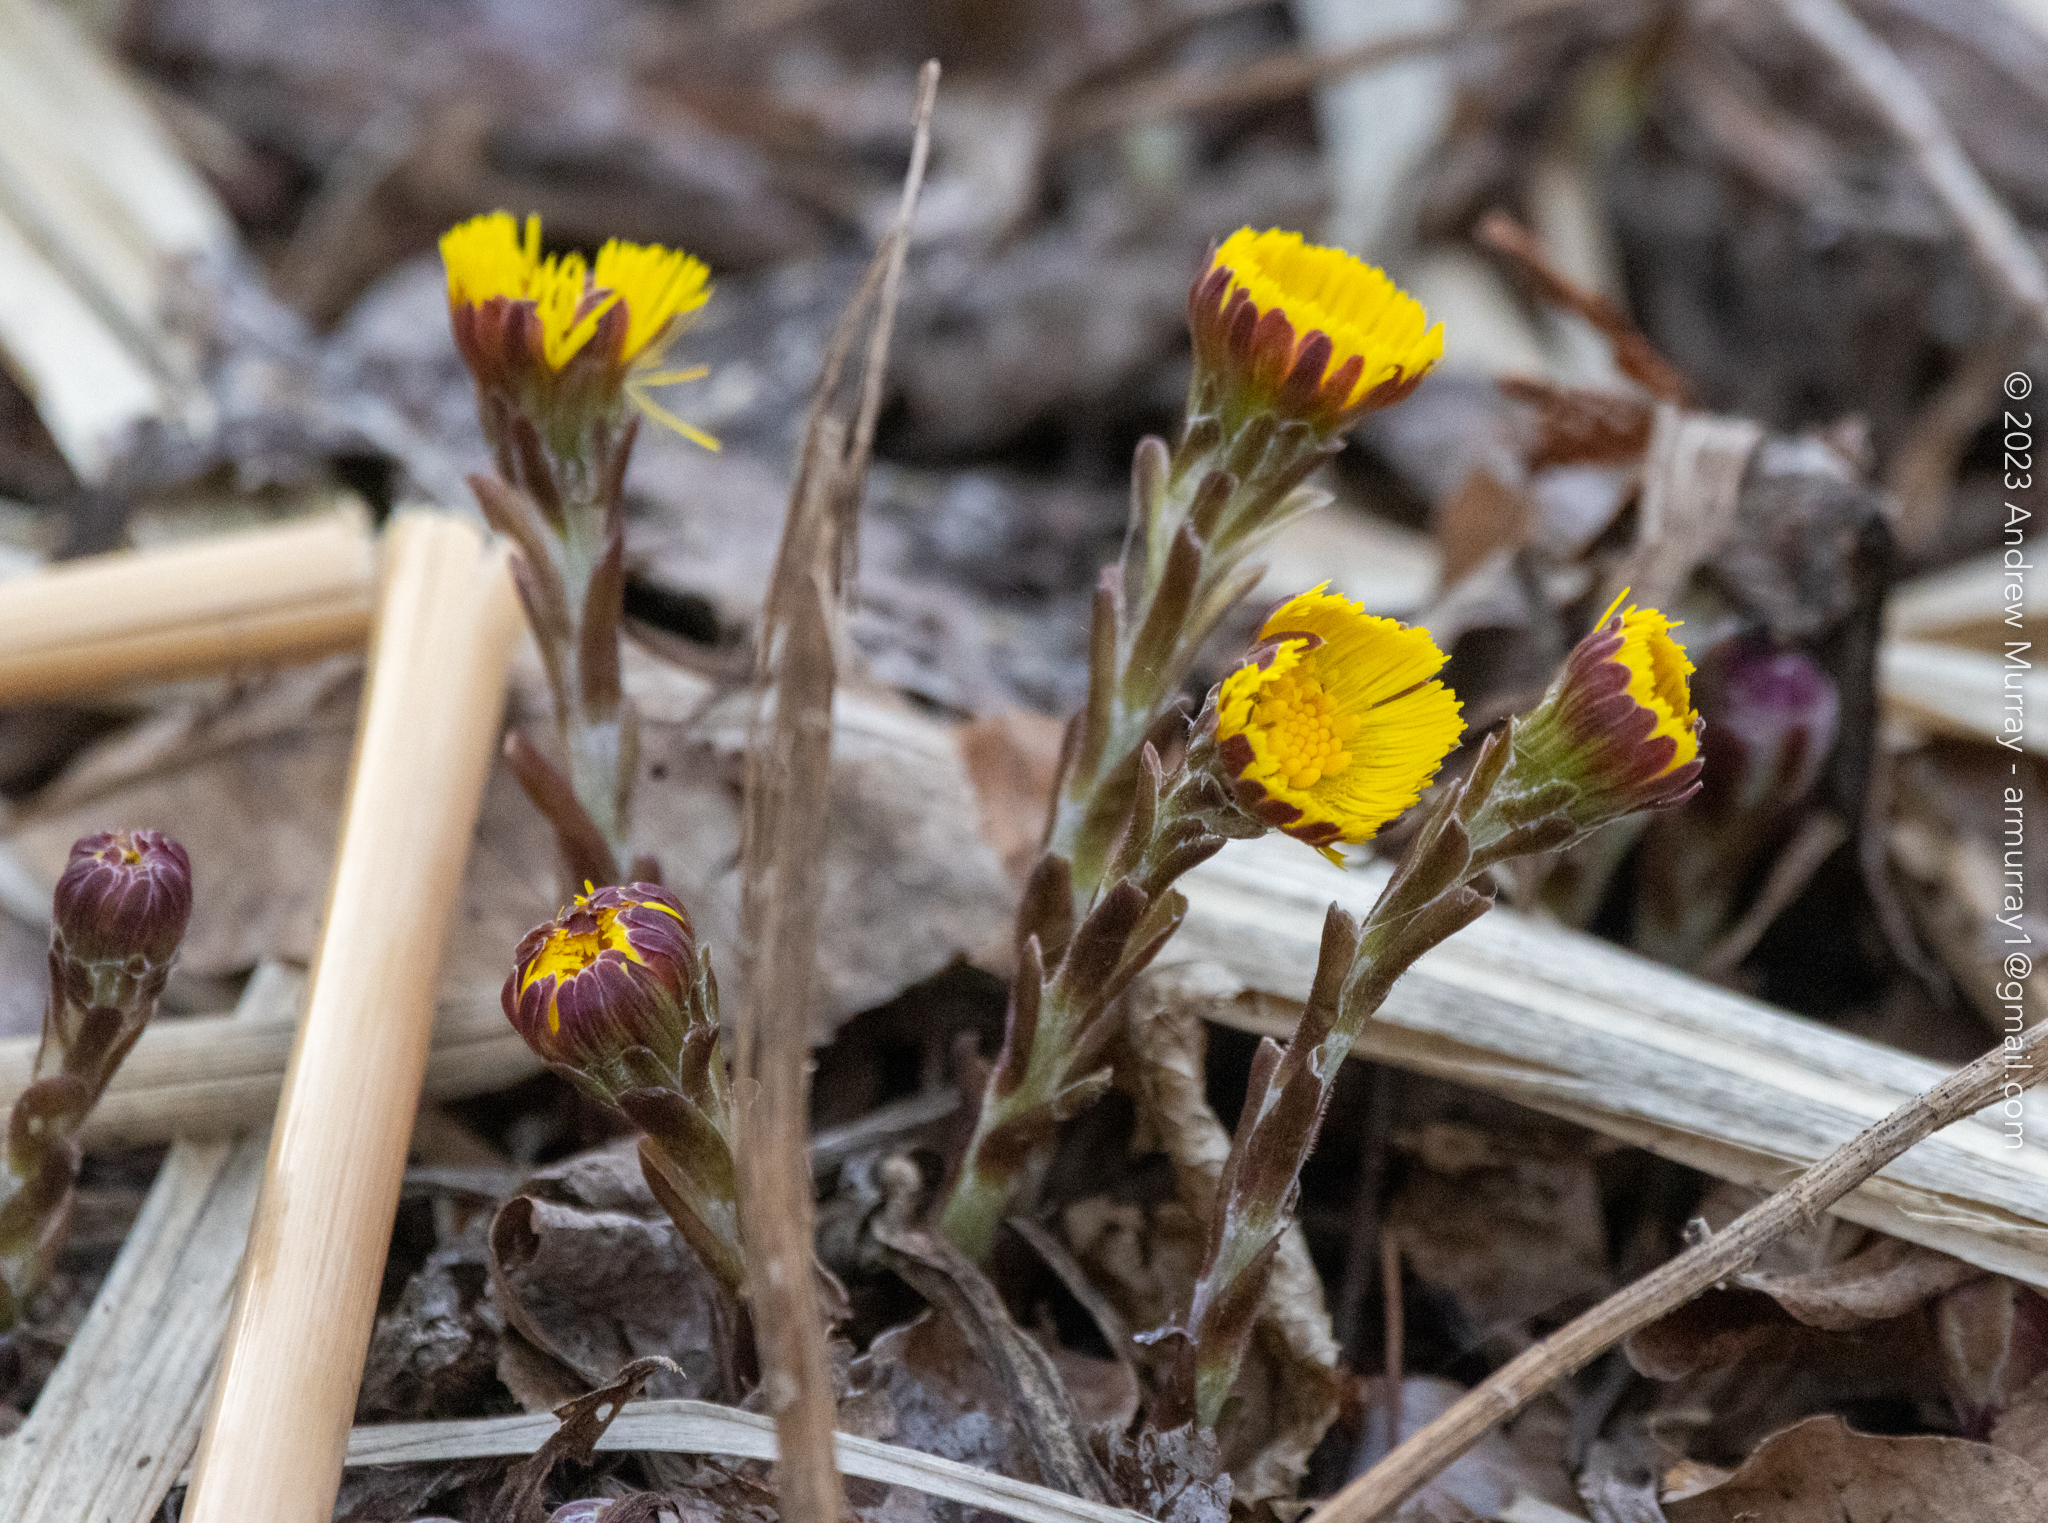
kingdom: Plantae
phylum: Tracheophyta
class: Magnoliopsida
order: Asterales
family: Asteraceae
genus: Tussilago
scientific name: Tussilago farfara
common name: Coltsfoot
